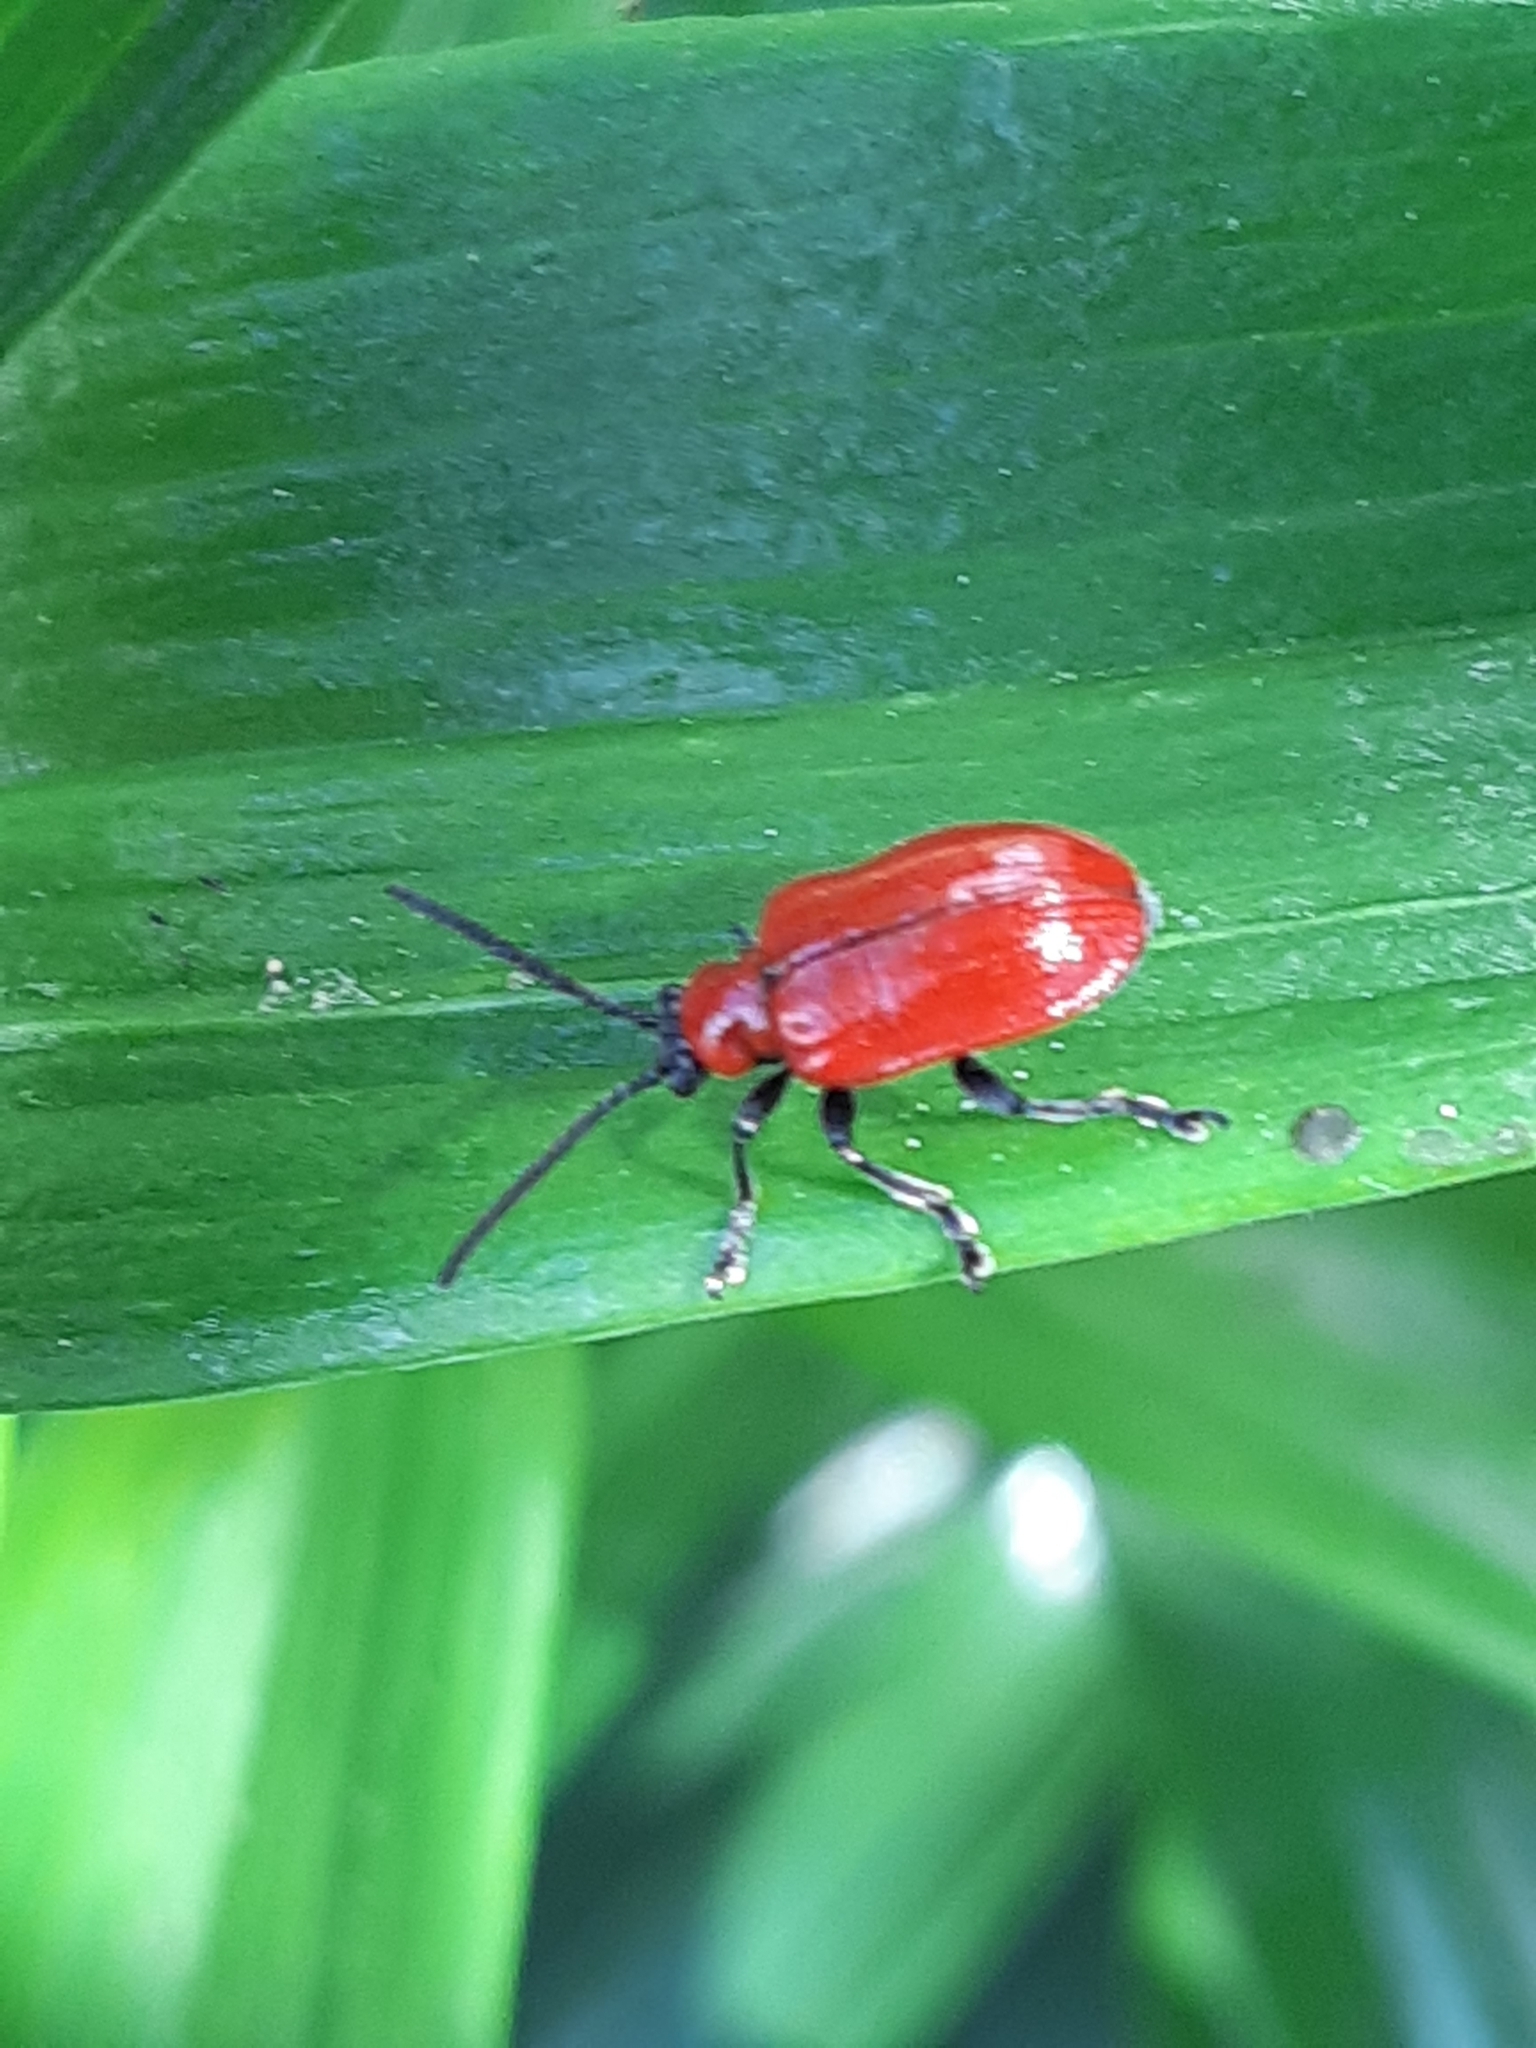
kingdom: Animalia
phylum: Arthropoda
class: Insecta
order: Coleoptera
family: Chrysomelidae
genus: Lilioceris
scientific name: Lilioceris lilii
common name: Lily beetle
